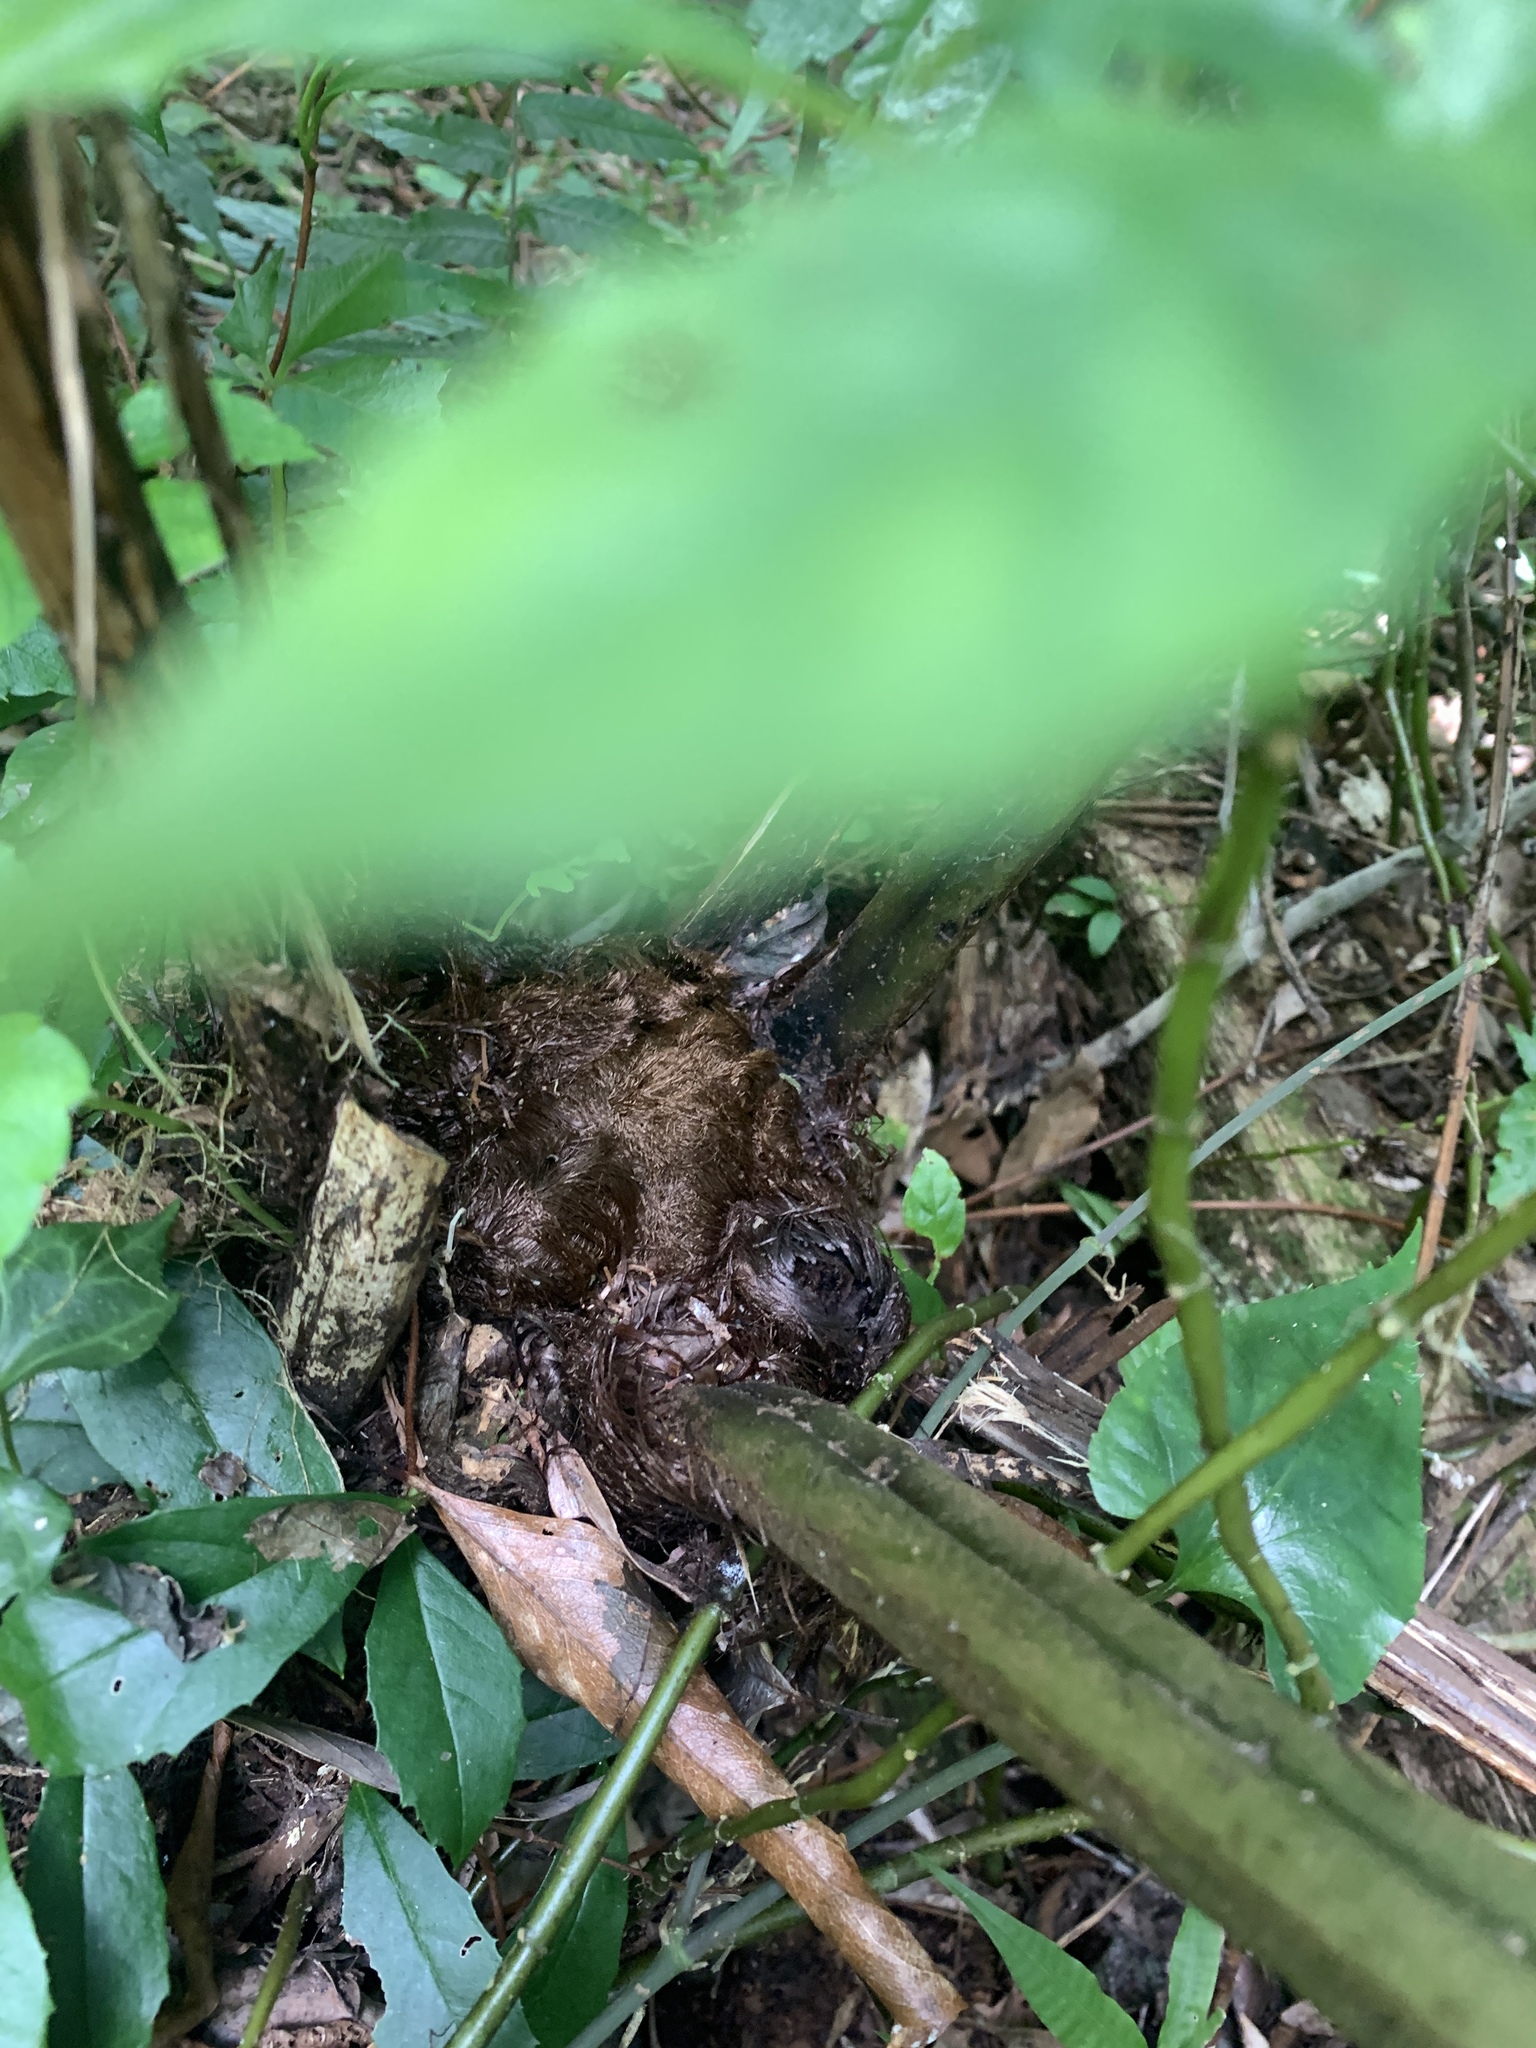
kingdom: Plantae
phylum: Tracheophyta
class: Polypodiopsida
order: Polypodiales
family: Athyriaceae
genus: Diplazium
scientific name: Diplazium maximum
